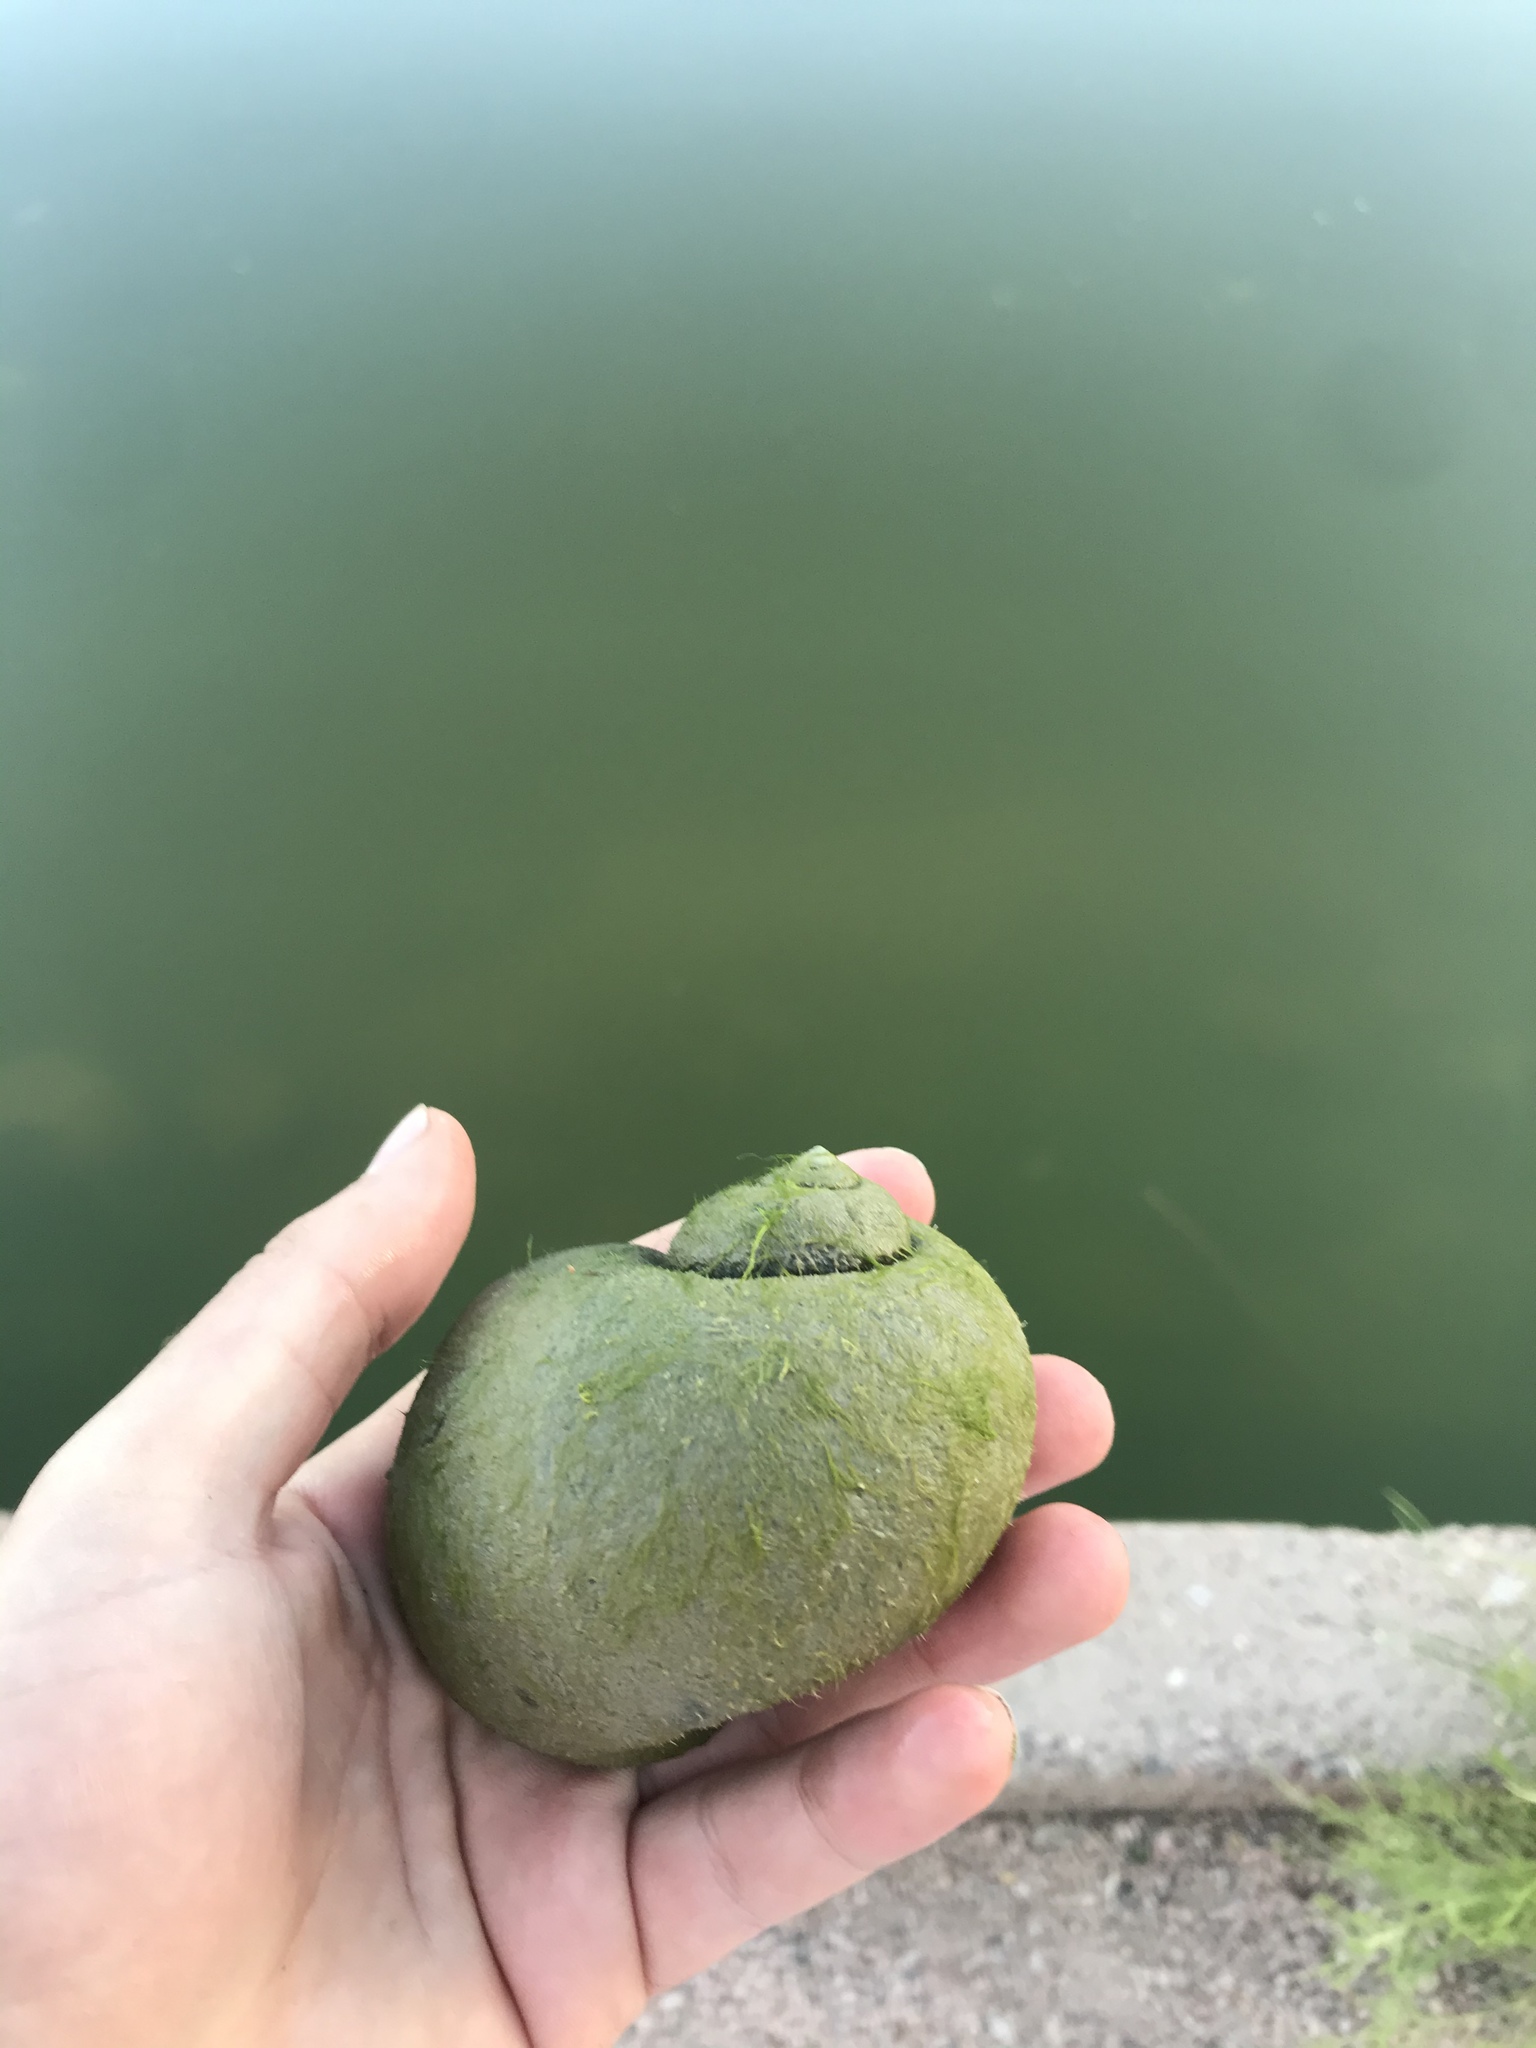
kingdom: Animalia
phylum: Mollusca
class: Gastropoda
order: Architaenioglossa
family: Ampullariidae
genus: Pomacea
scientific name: Pomacea maculata
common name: Giant applesnail
